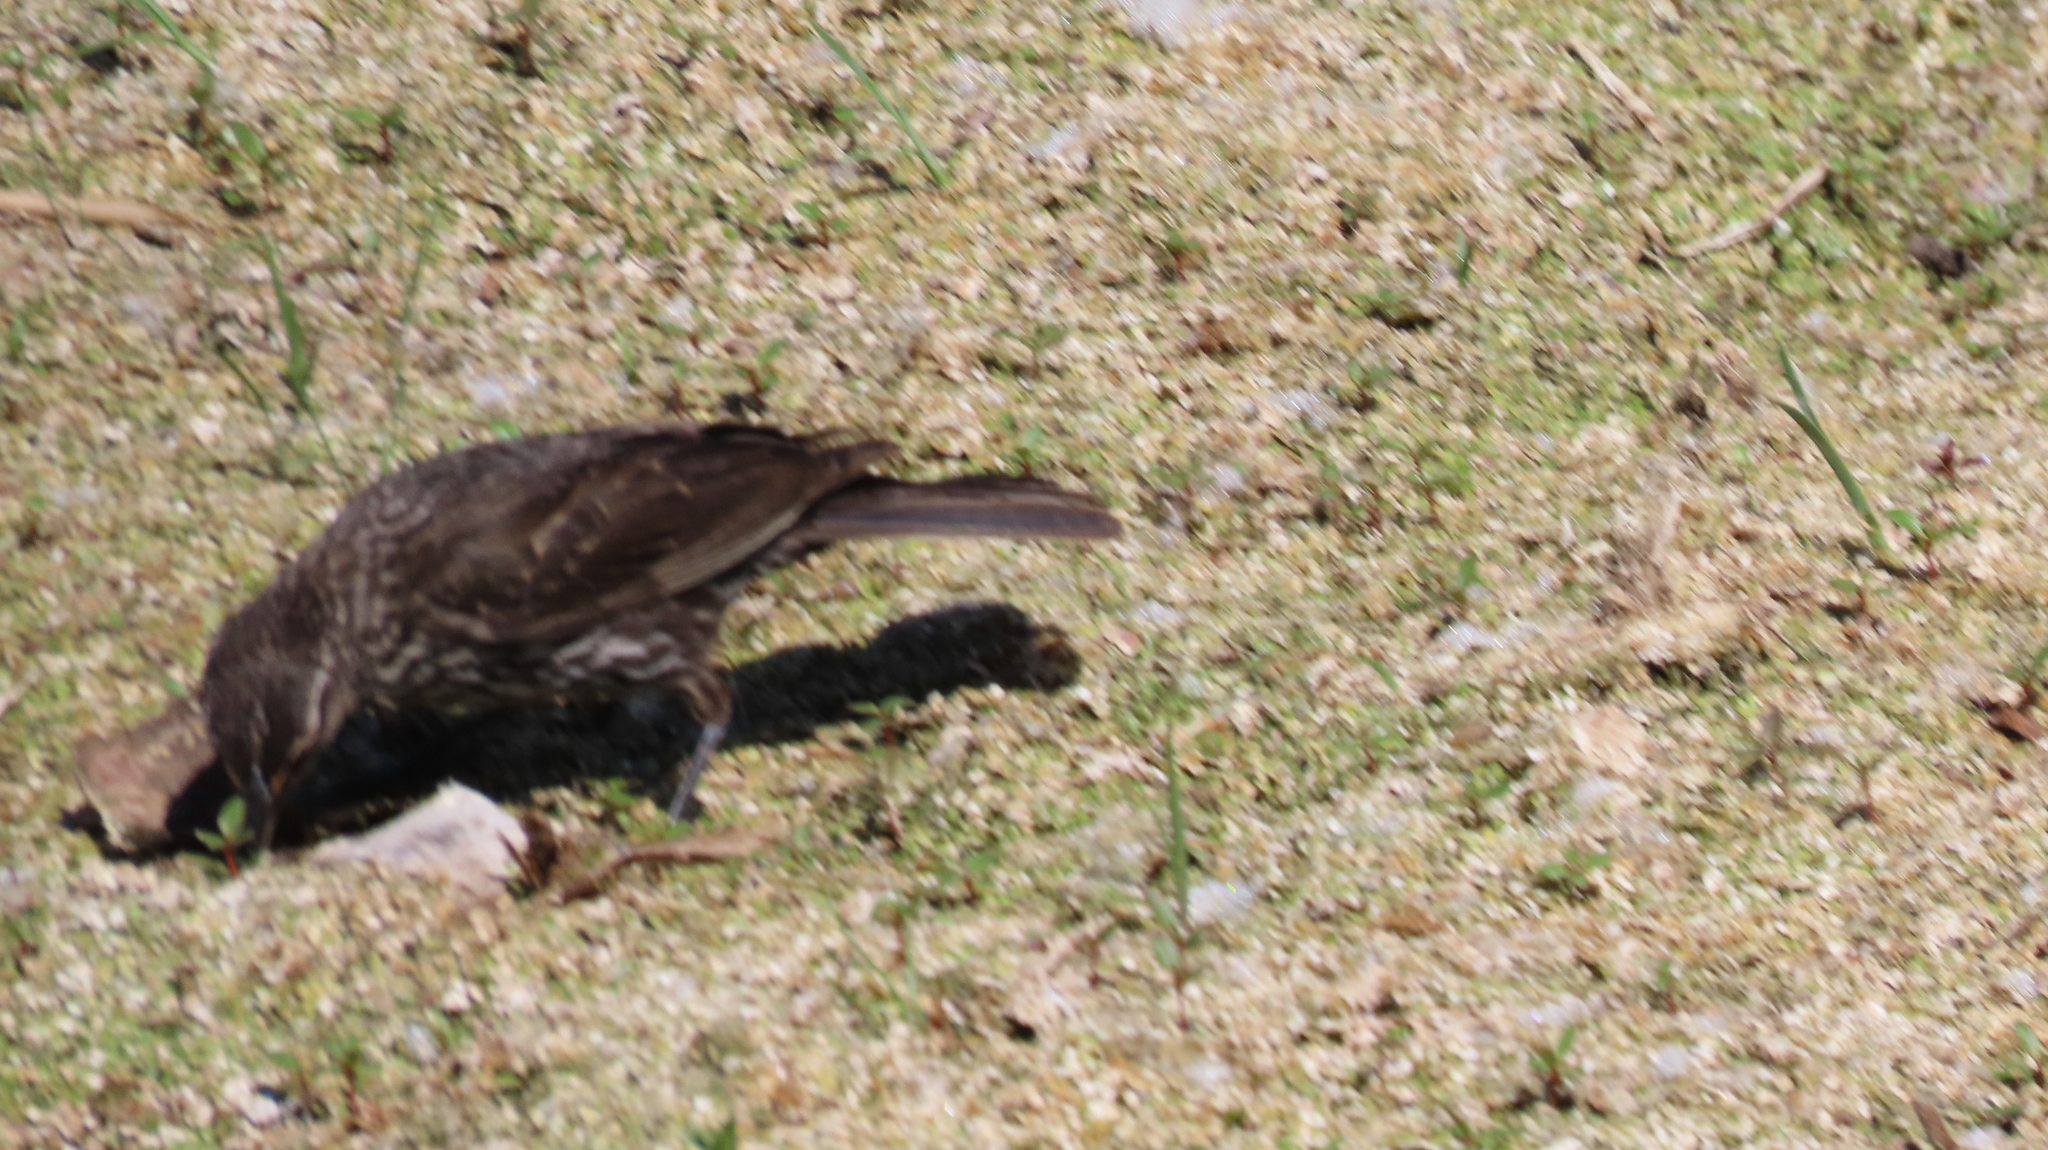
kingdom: Animalia
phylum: Chordata
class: Aves
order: Passeriformes
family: Icteridae
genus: Agelaius
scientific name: Agelaius phoeniceus
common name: Red-winged blackbird
